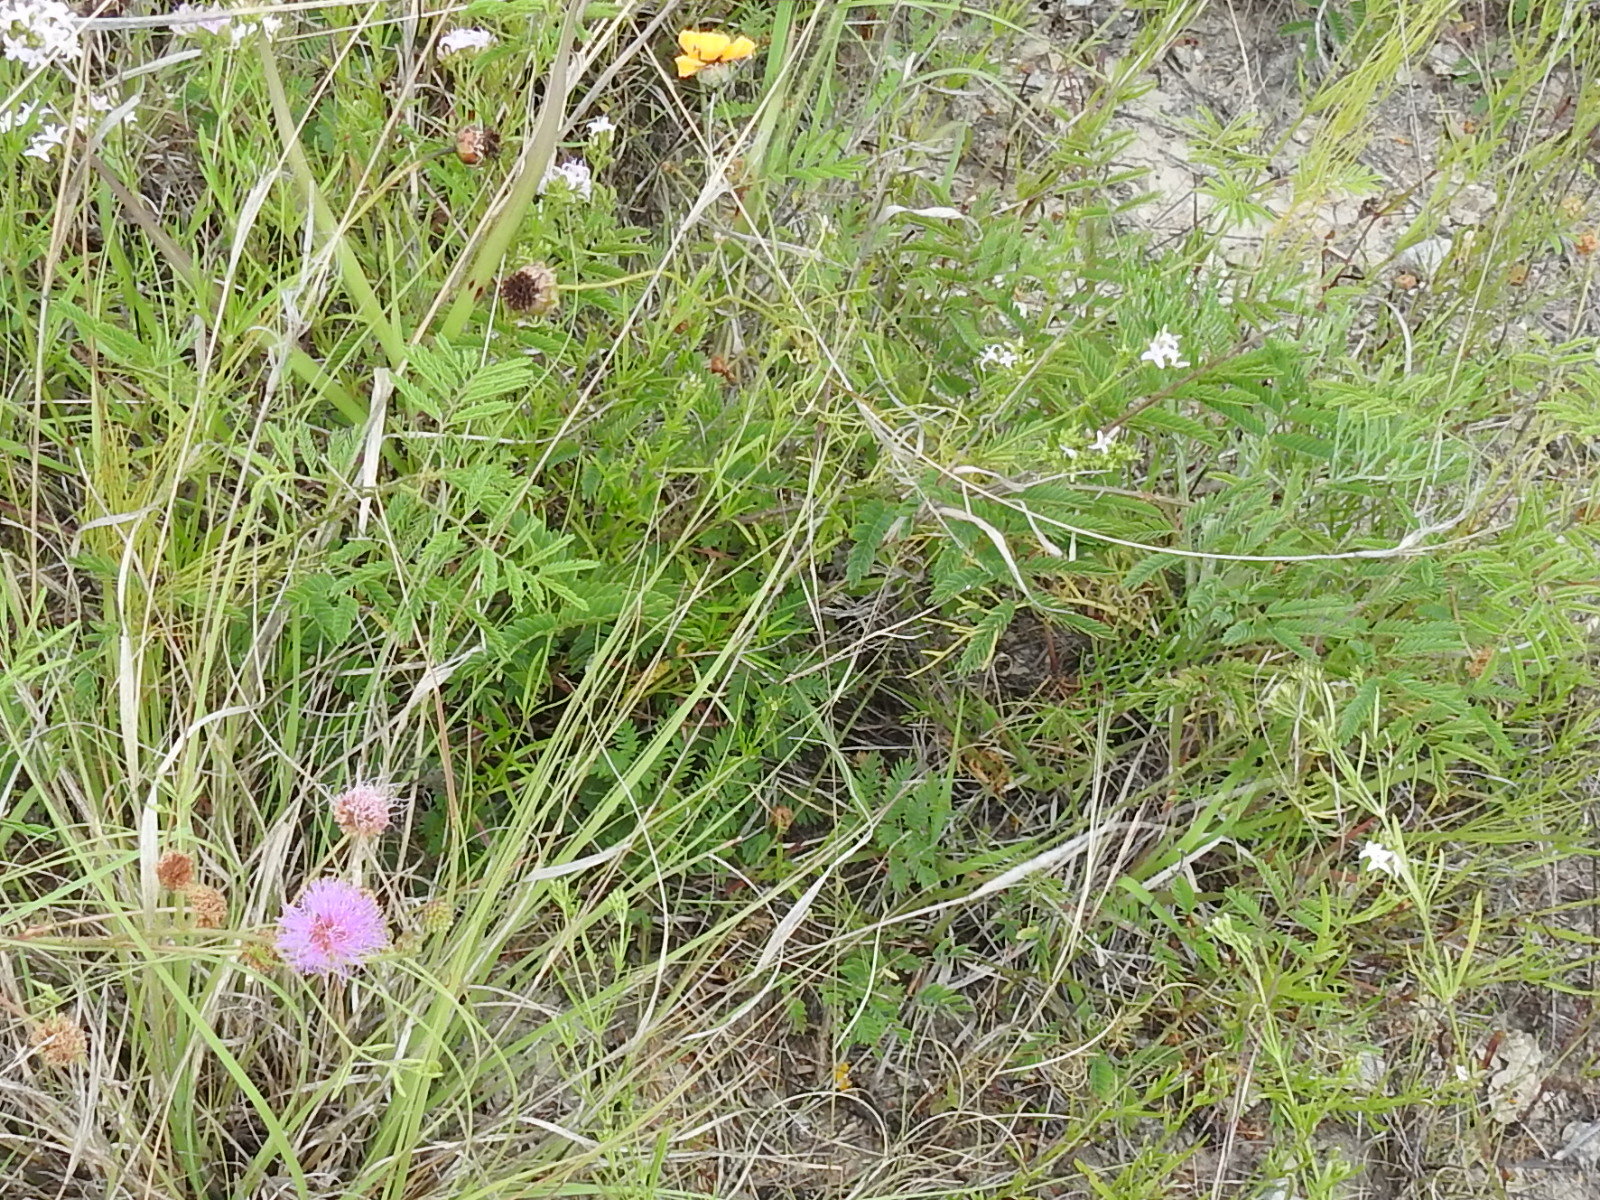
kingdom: Plantae
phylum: Tracheophyta
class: Magnoliopsida
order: Fabales
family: Fabaceae
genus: Mimosa
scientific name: Mimosa quadrivalvis
